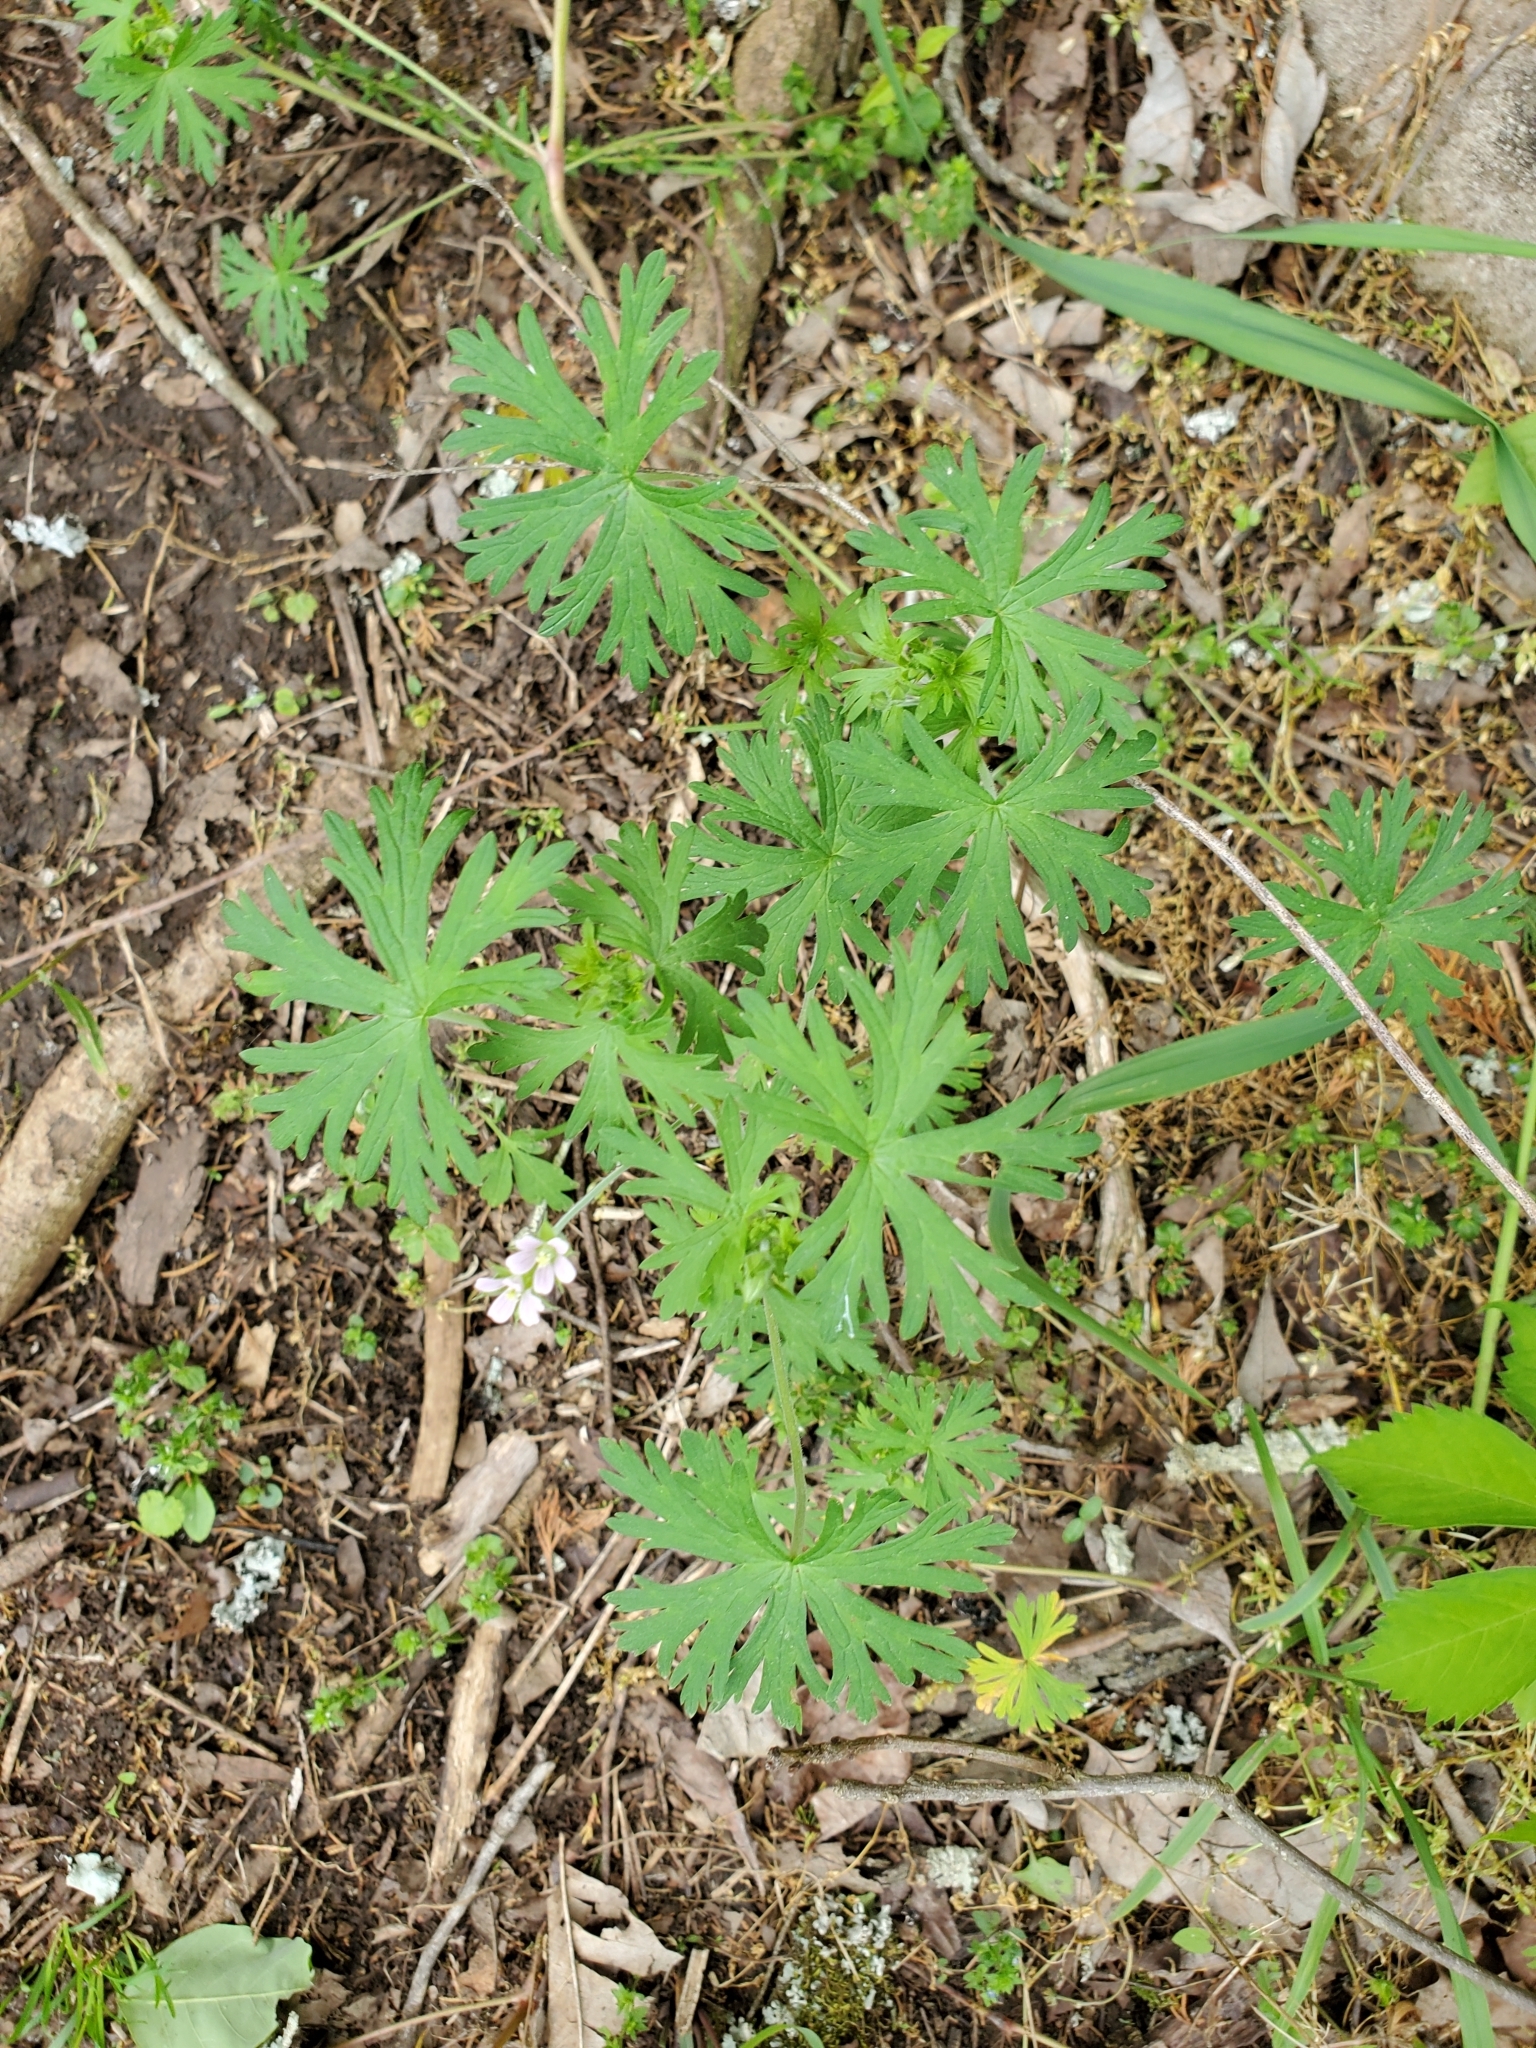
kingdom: Plantae
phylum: Tracheophyta
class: Magnoliopsida
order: Geraniales
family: Geraniaceae
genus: Geranium
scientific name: Geranium carolinianum
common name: Carolina crane's-bill
